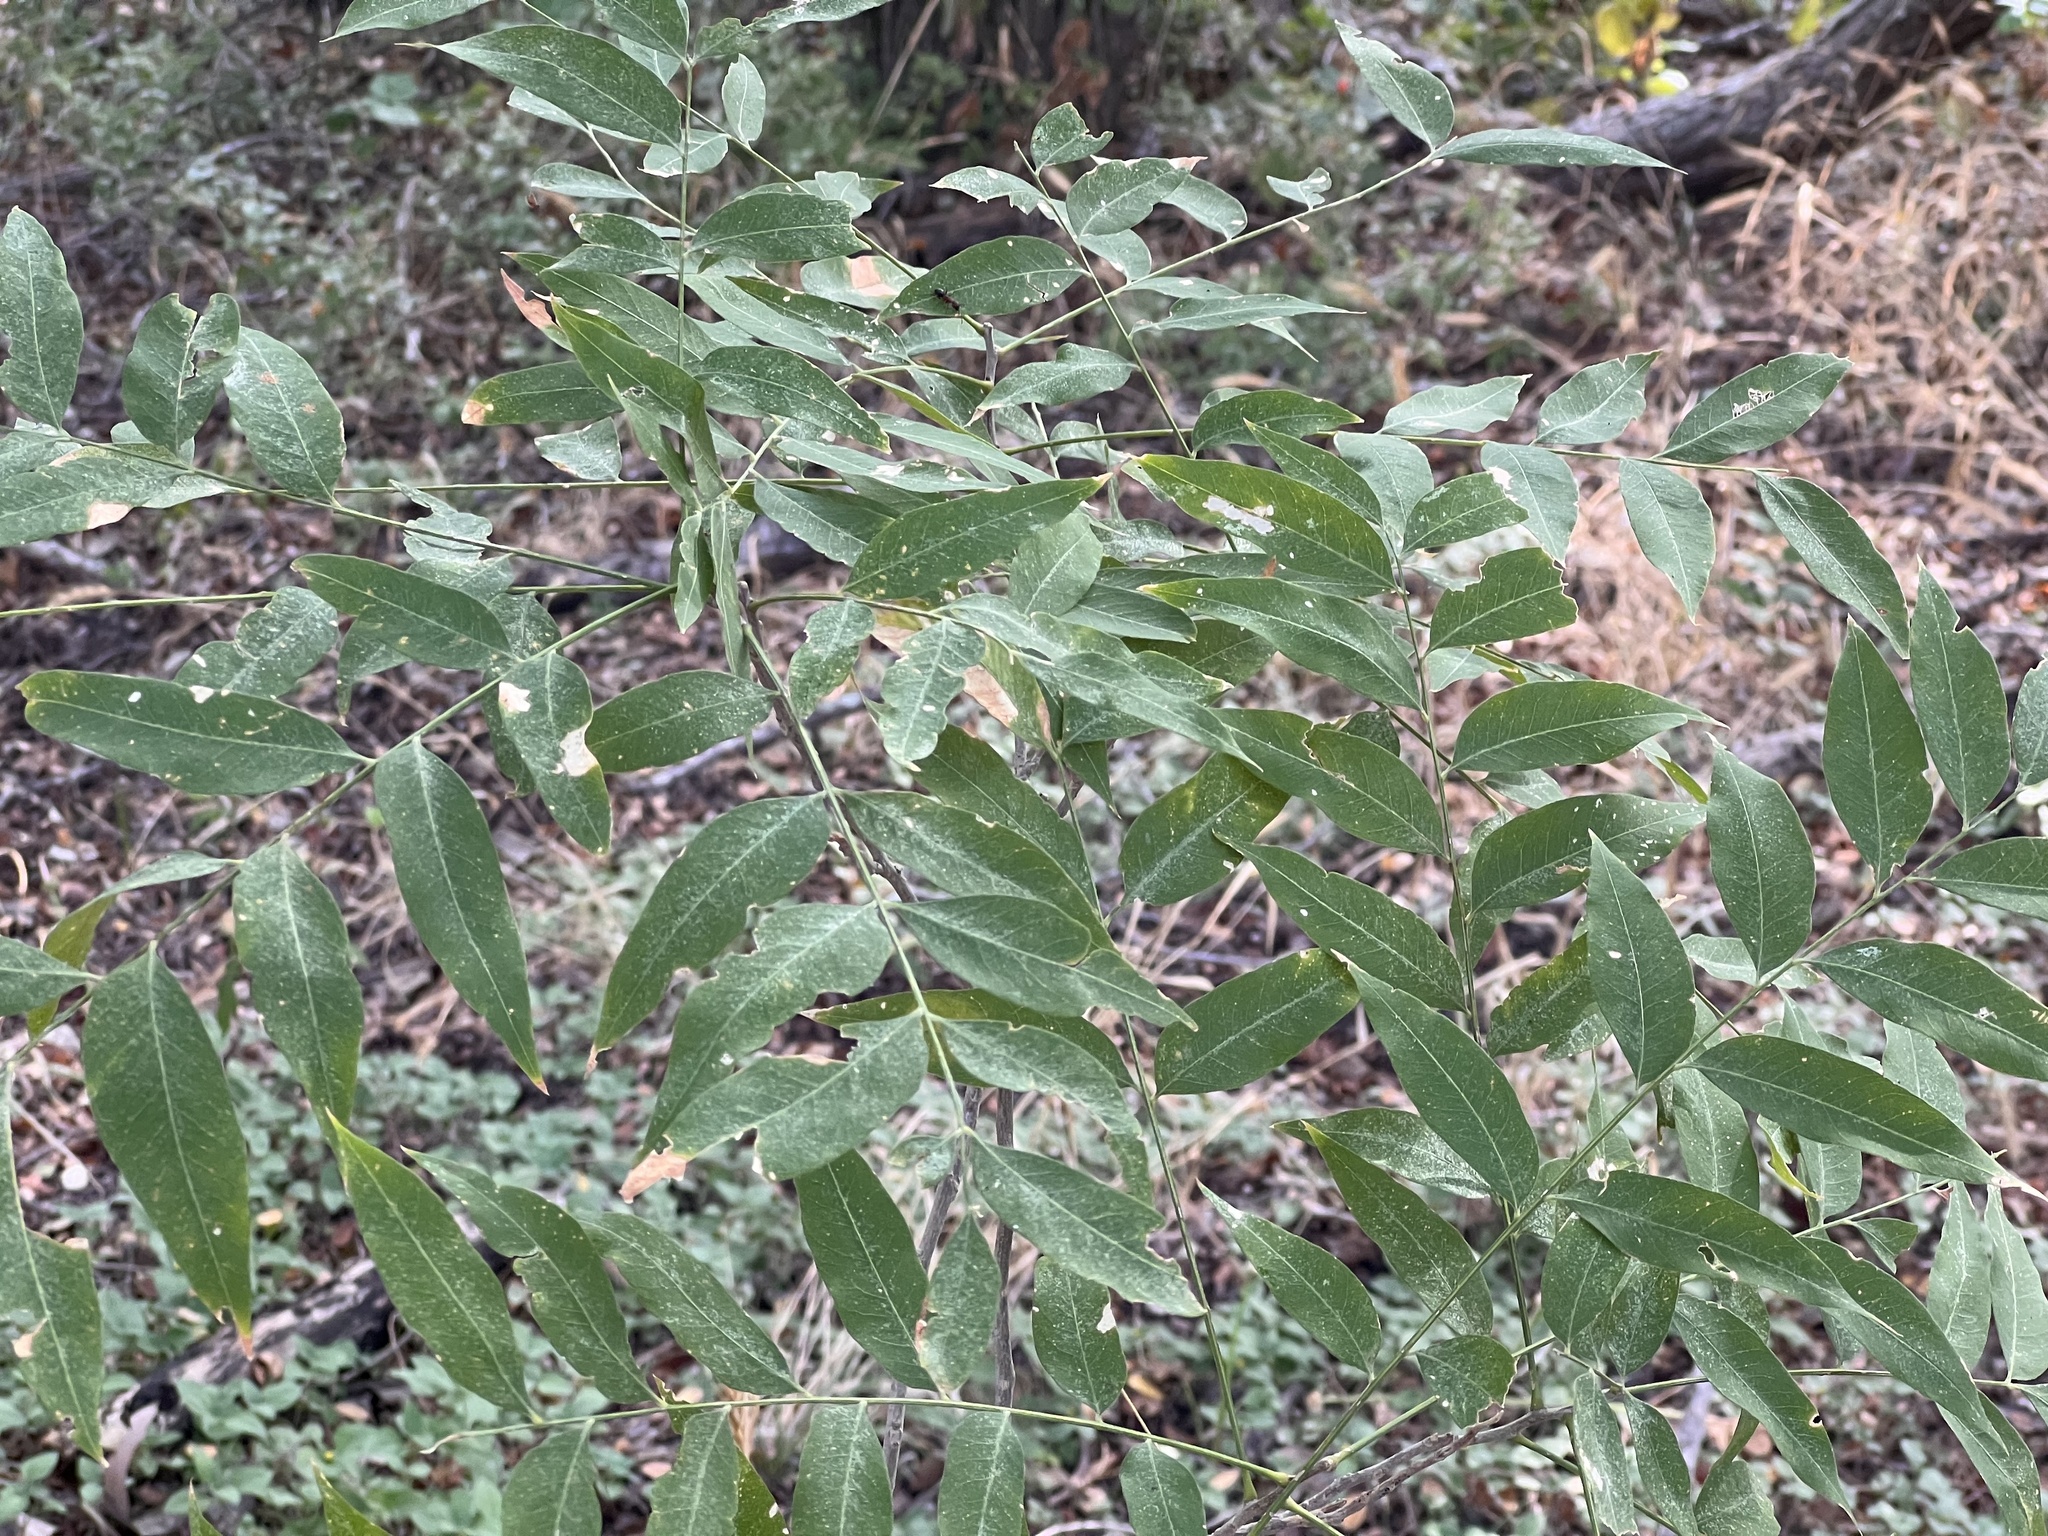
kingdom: Plantae
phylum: Tracheophyta
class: Magnoliopsida
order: Sapindales
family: Sapindaceae
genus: Sapindus
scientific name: Sapindus drummondii
